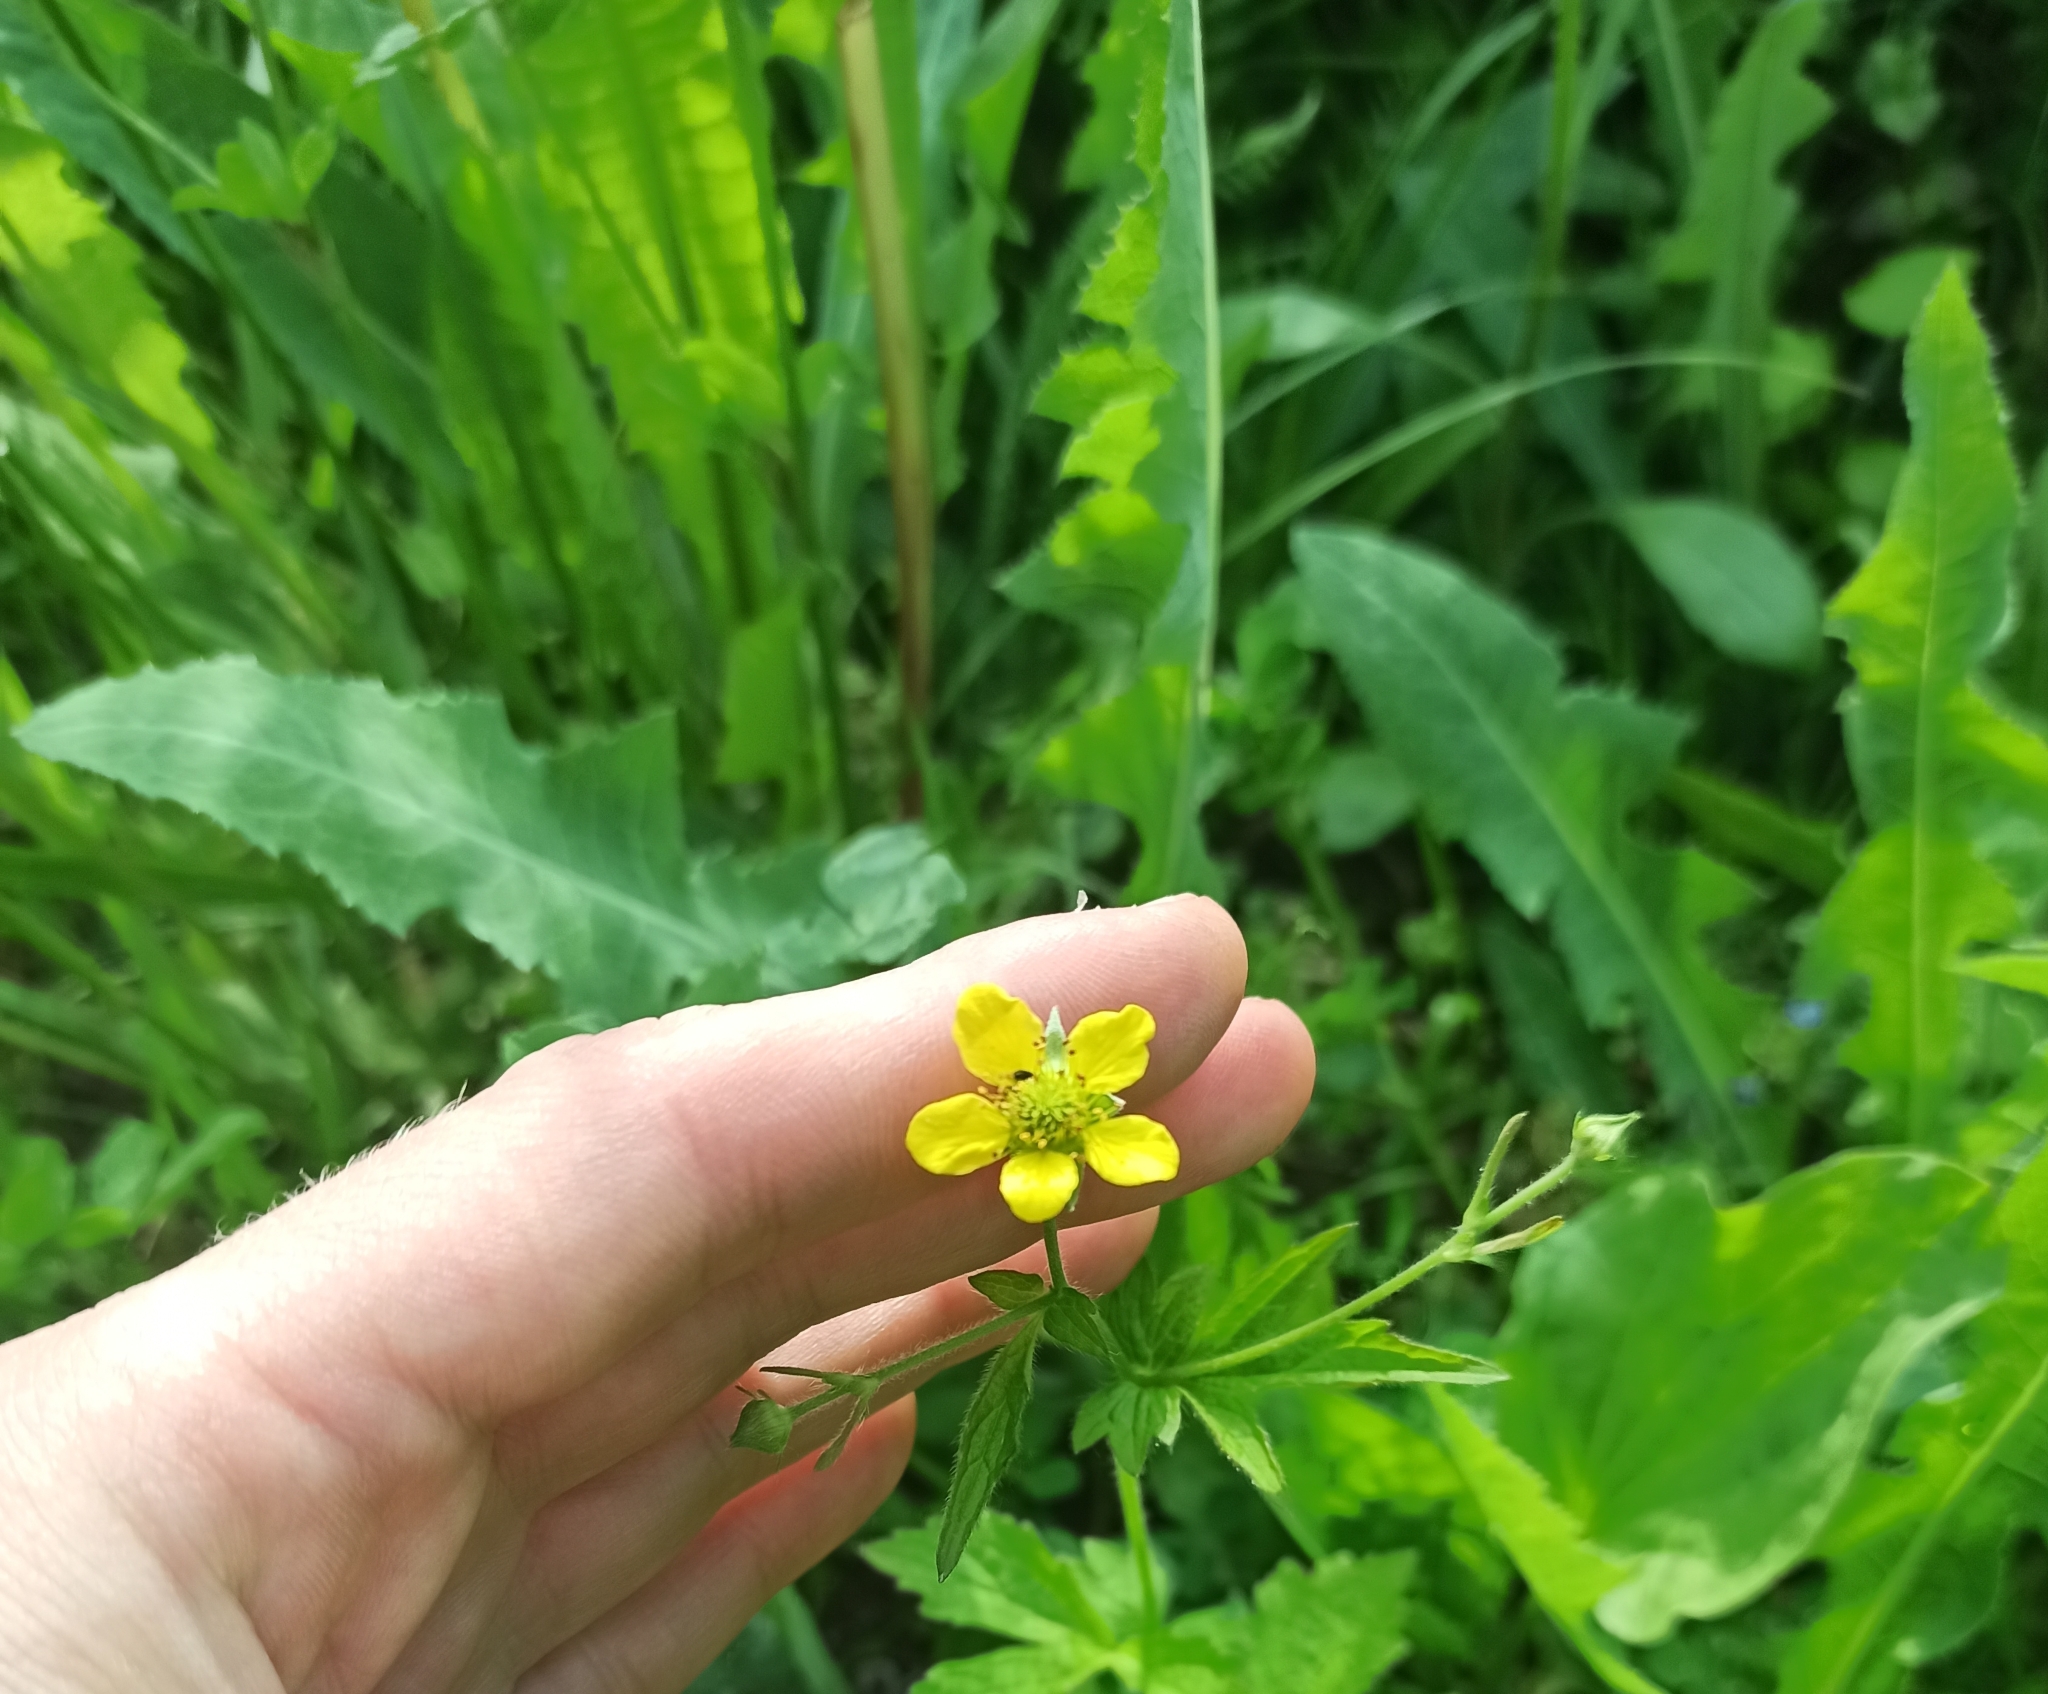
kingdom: Plantae
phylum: Tracheophyta
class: Magnoliopsida
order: Rosales
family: Rosaceae
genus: Geum
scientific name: Geum urbanum
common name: Wood avens
